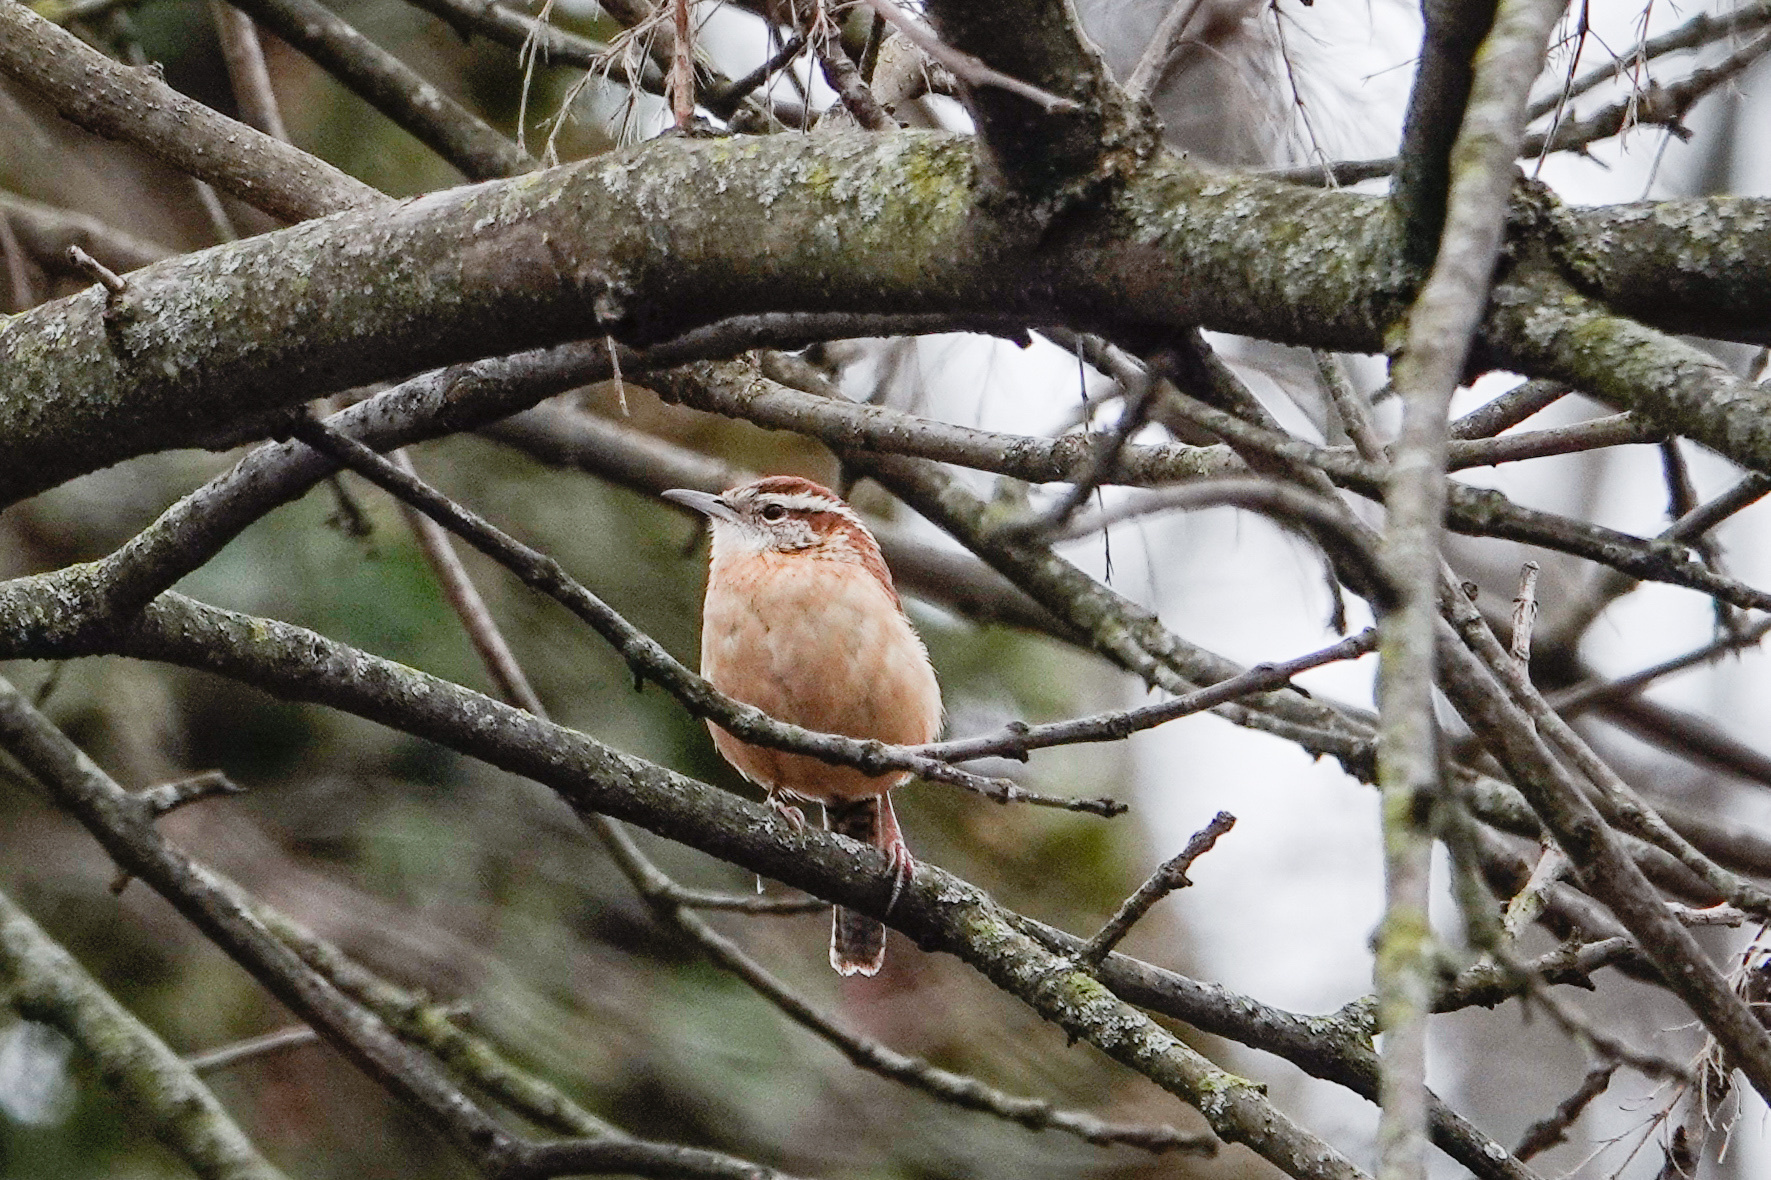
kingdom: Animalia
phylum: Chordata
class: Aves
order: Passeriformes
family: Troglodytidae
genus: Thryothorus
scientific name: Thryothorus ludovicianus
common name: Carolina wren
